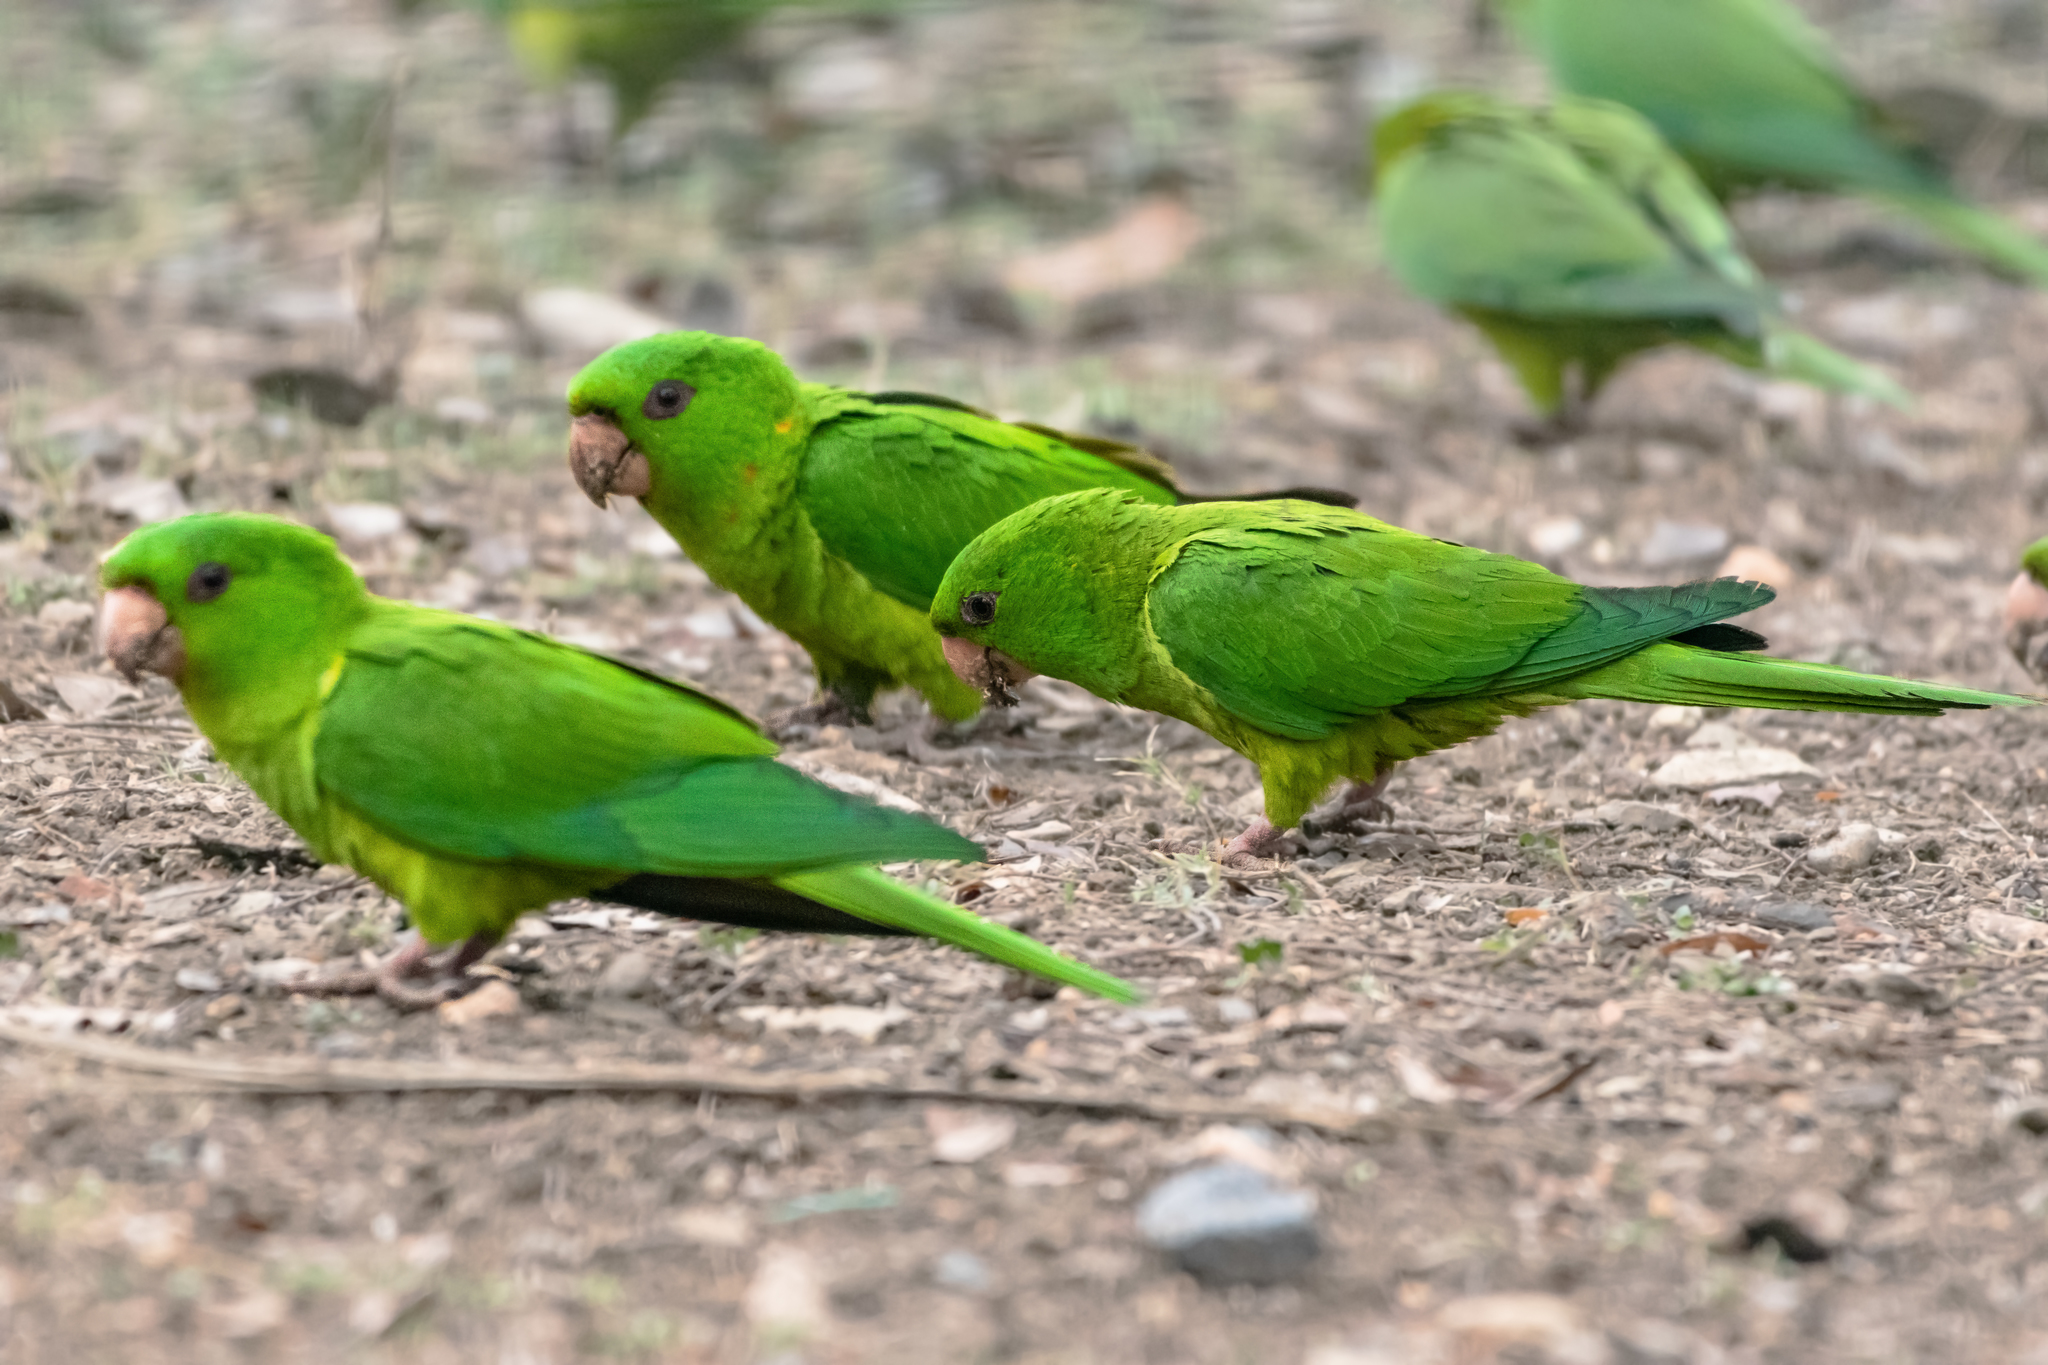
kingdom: Animalia
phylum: Chordata
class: Aves
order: Psittaciformes
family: Psittacidae
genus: Aratinga
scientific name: Aratinga holochlora
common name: Green parakeet
